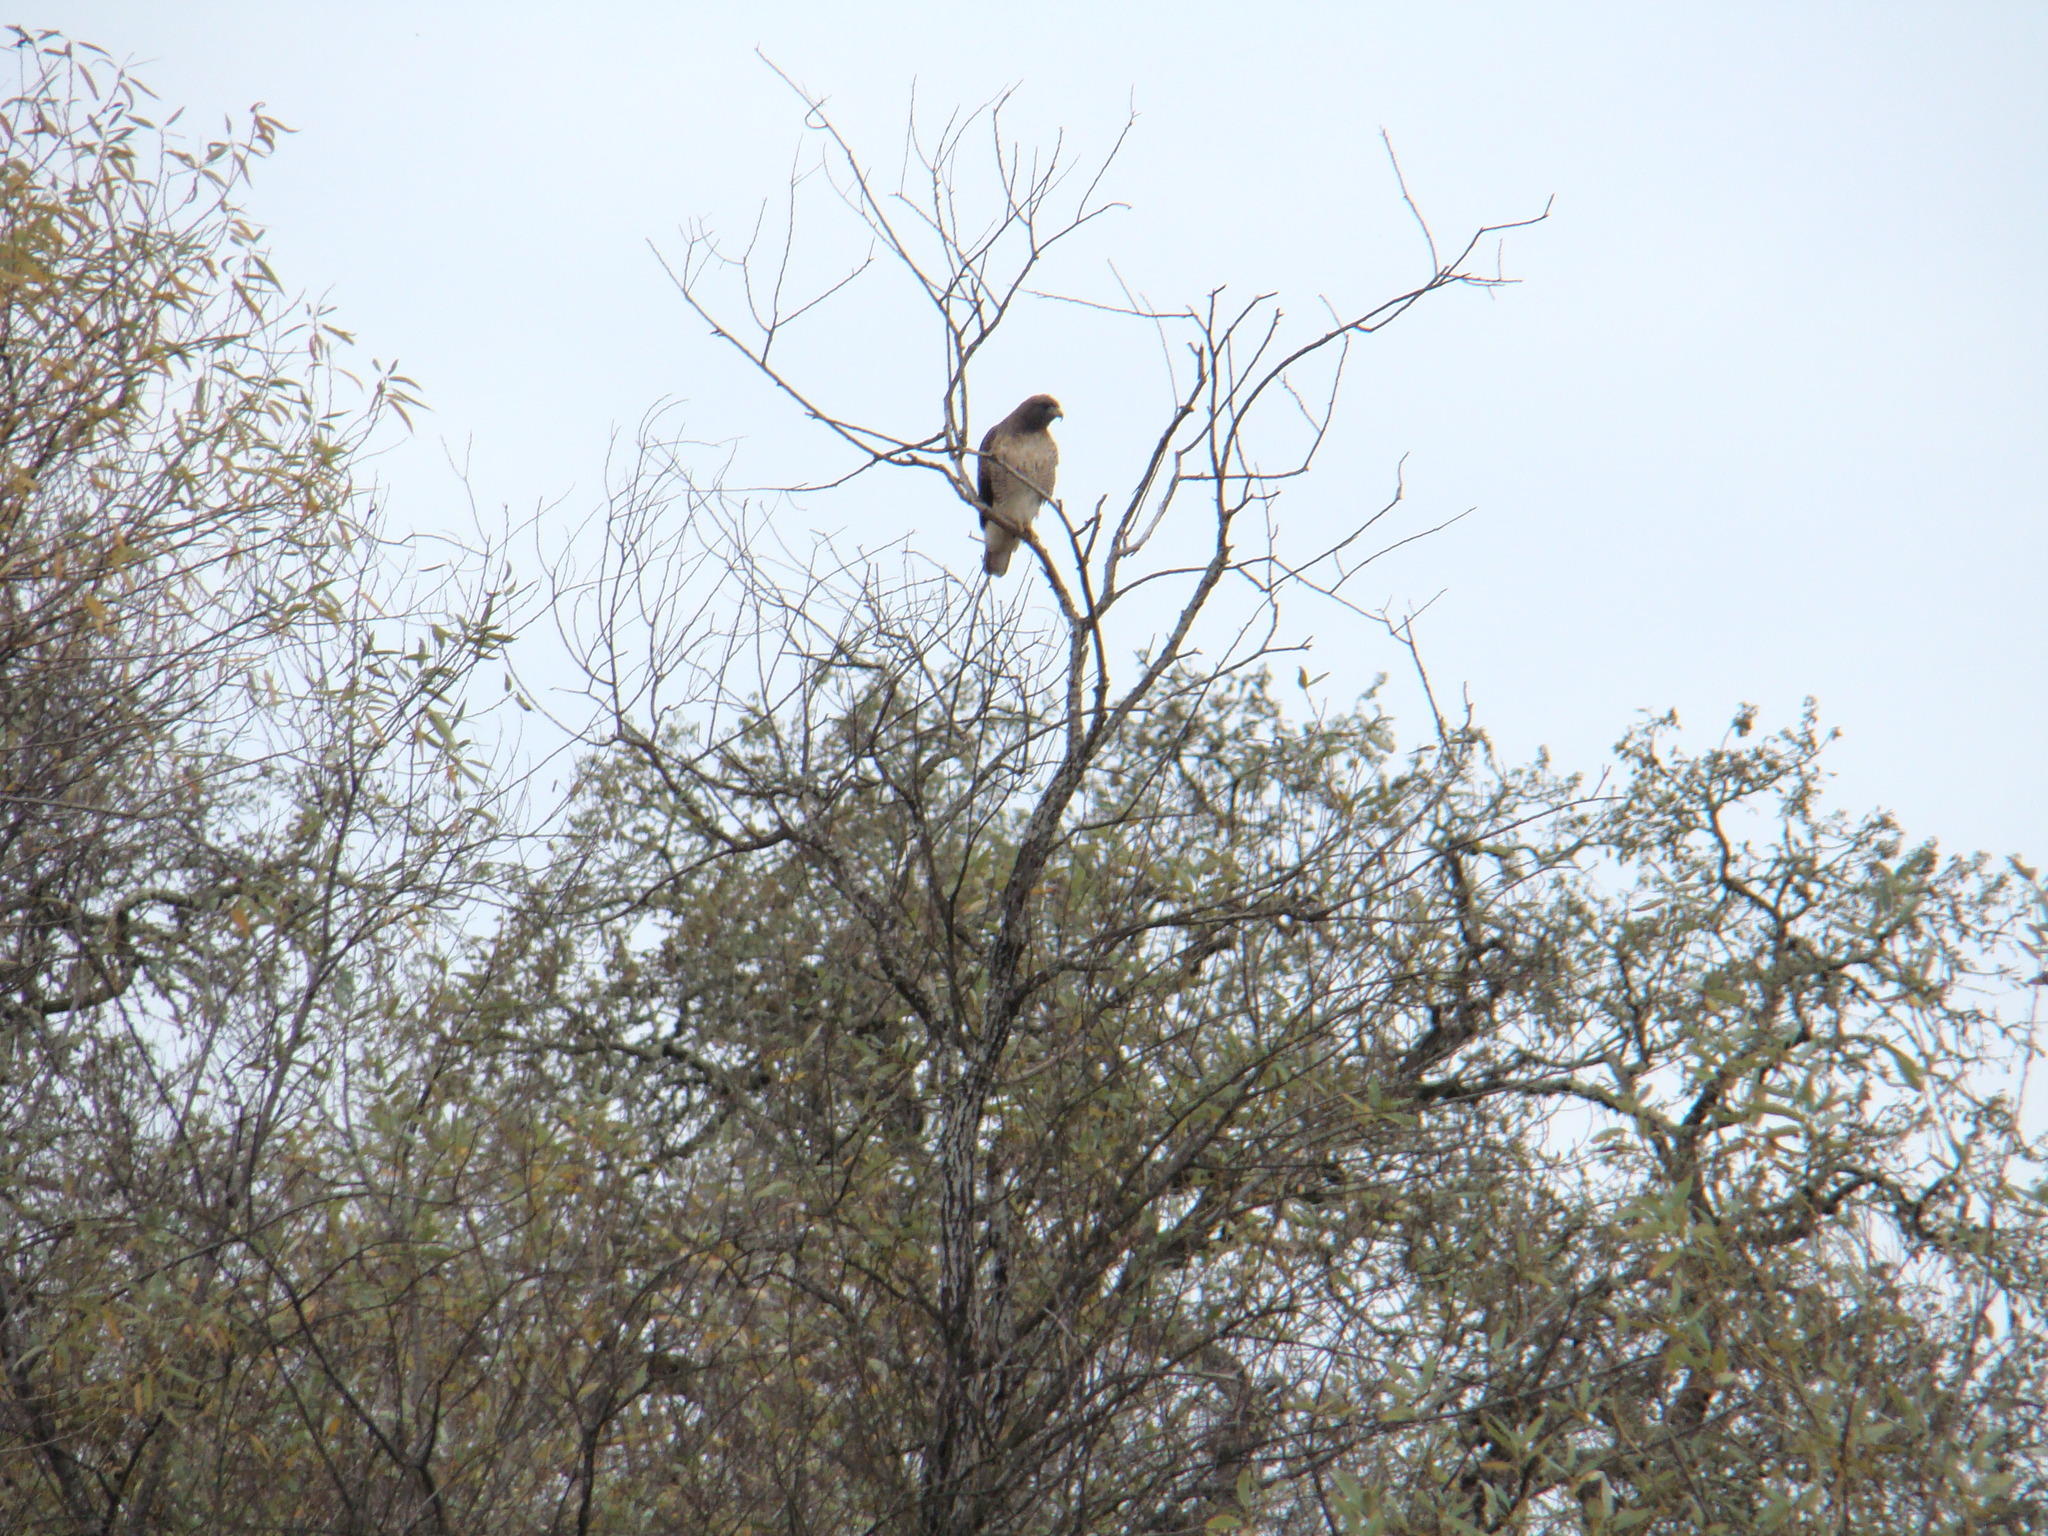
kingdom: Animalia
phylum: Chordata
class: Aves
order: Accipitriformes
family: Accipitridae
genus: Buteo
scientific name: Buteo jamaicensis
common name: Red-tailed hawk
